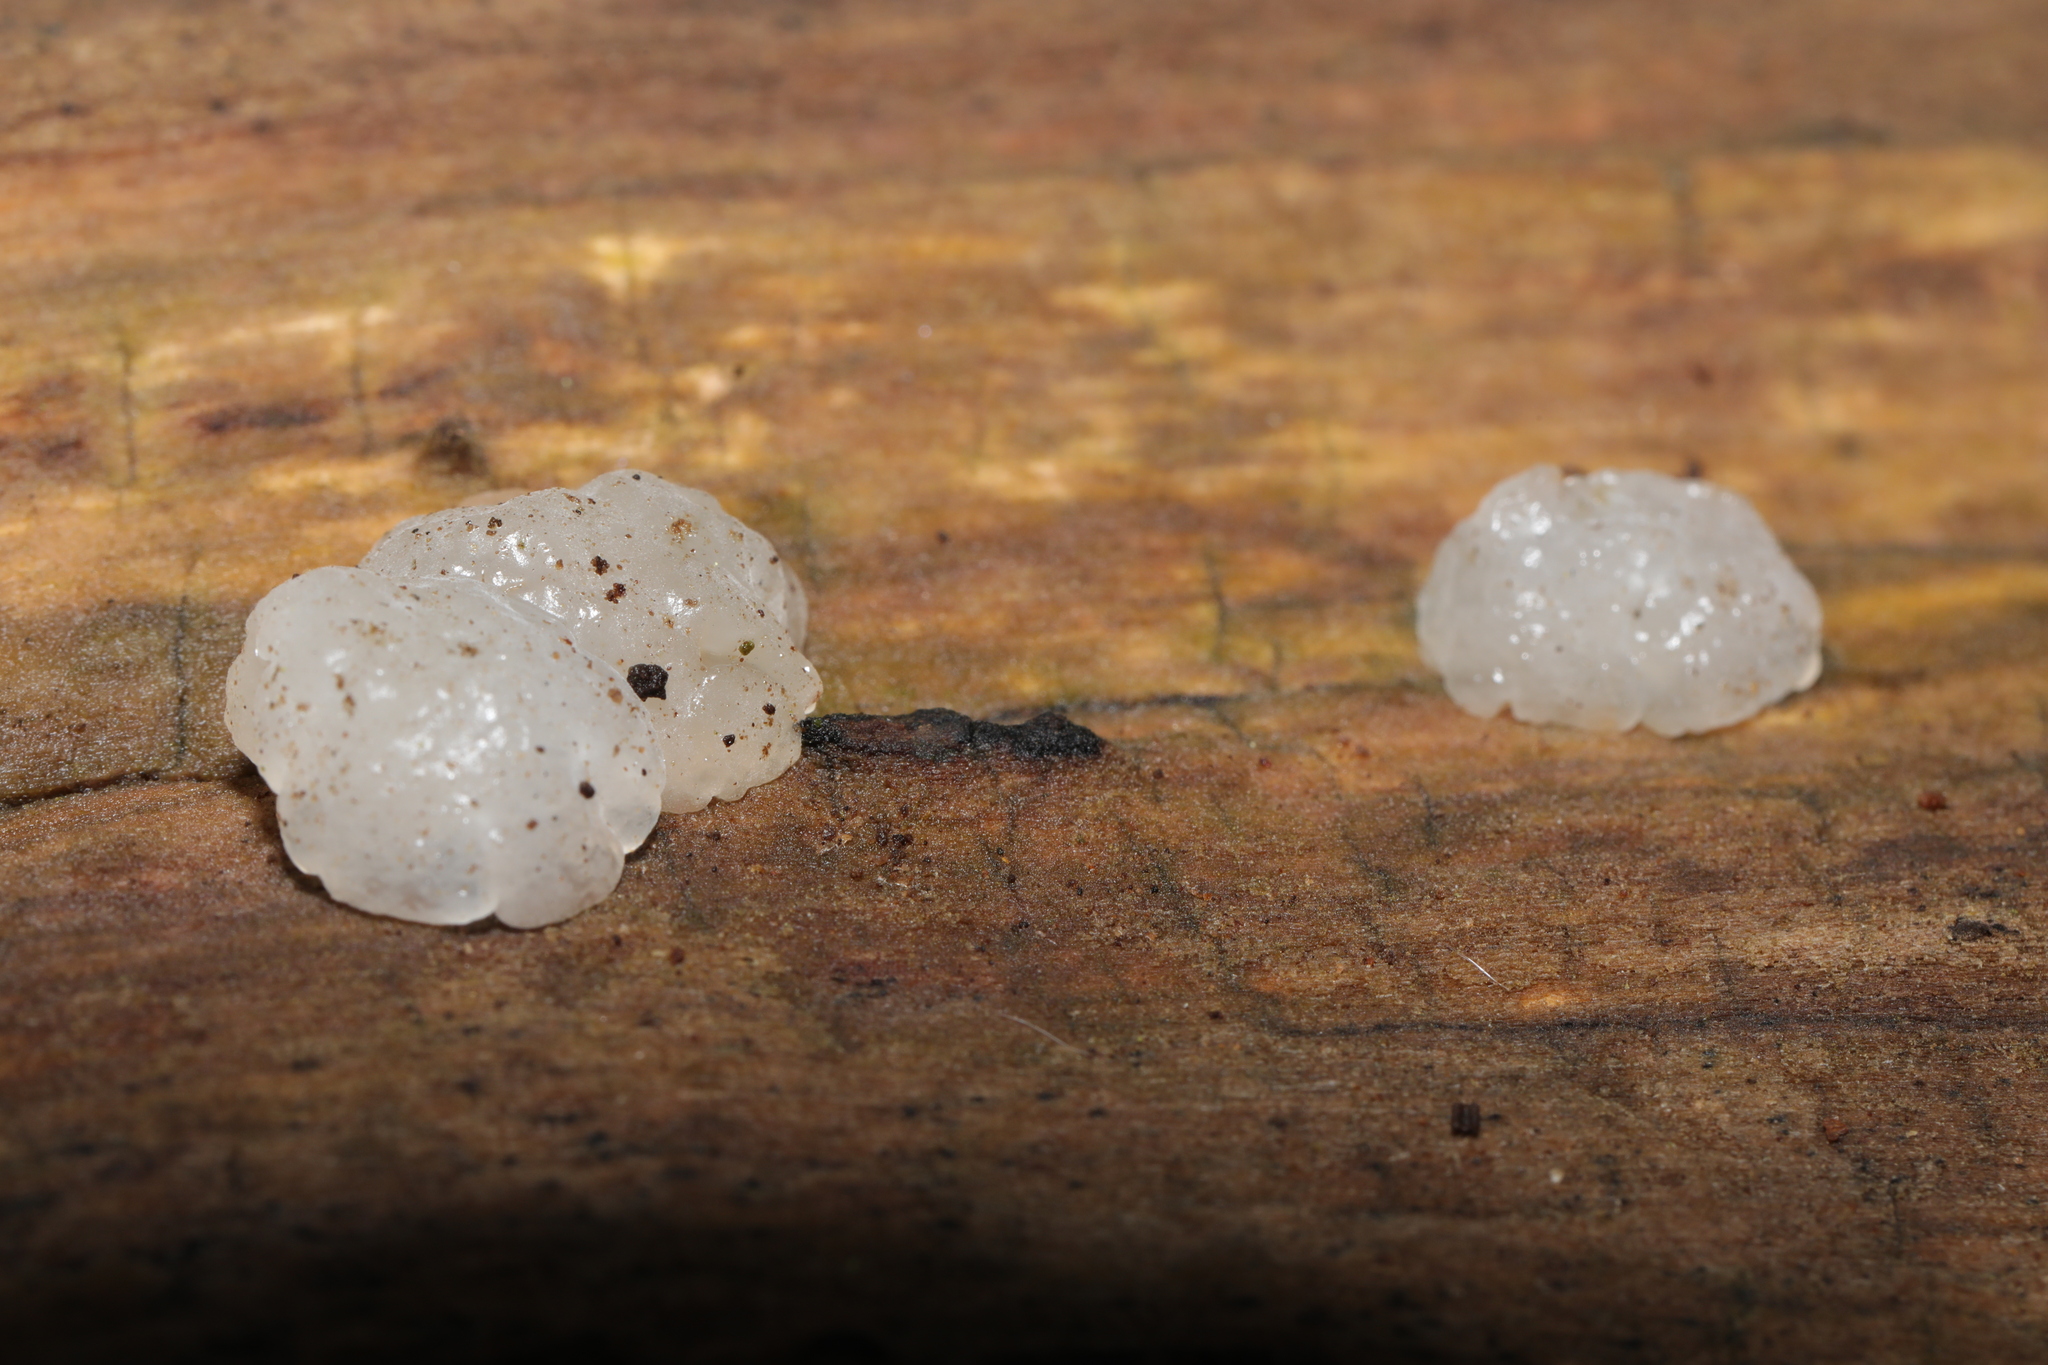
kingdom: Fungi
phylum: Basidiomycota
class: Agaricomycetes
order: Auriculariales
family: Hyaloriaceae
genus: Myxarium
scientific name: Myxarium nucleatum
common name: Crystal brain fungus
